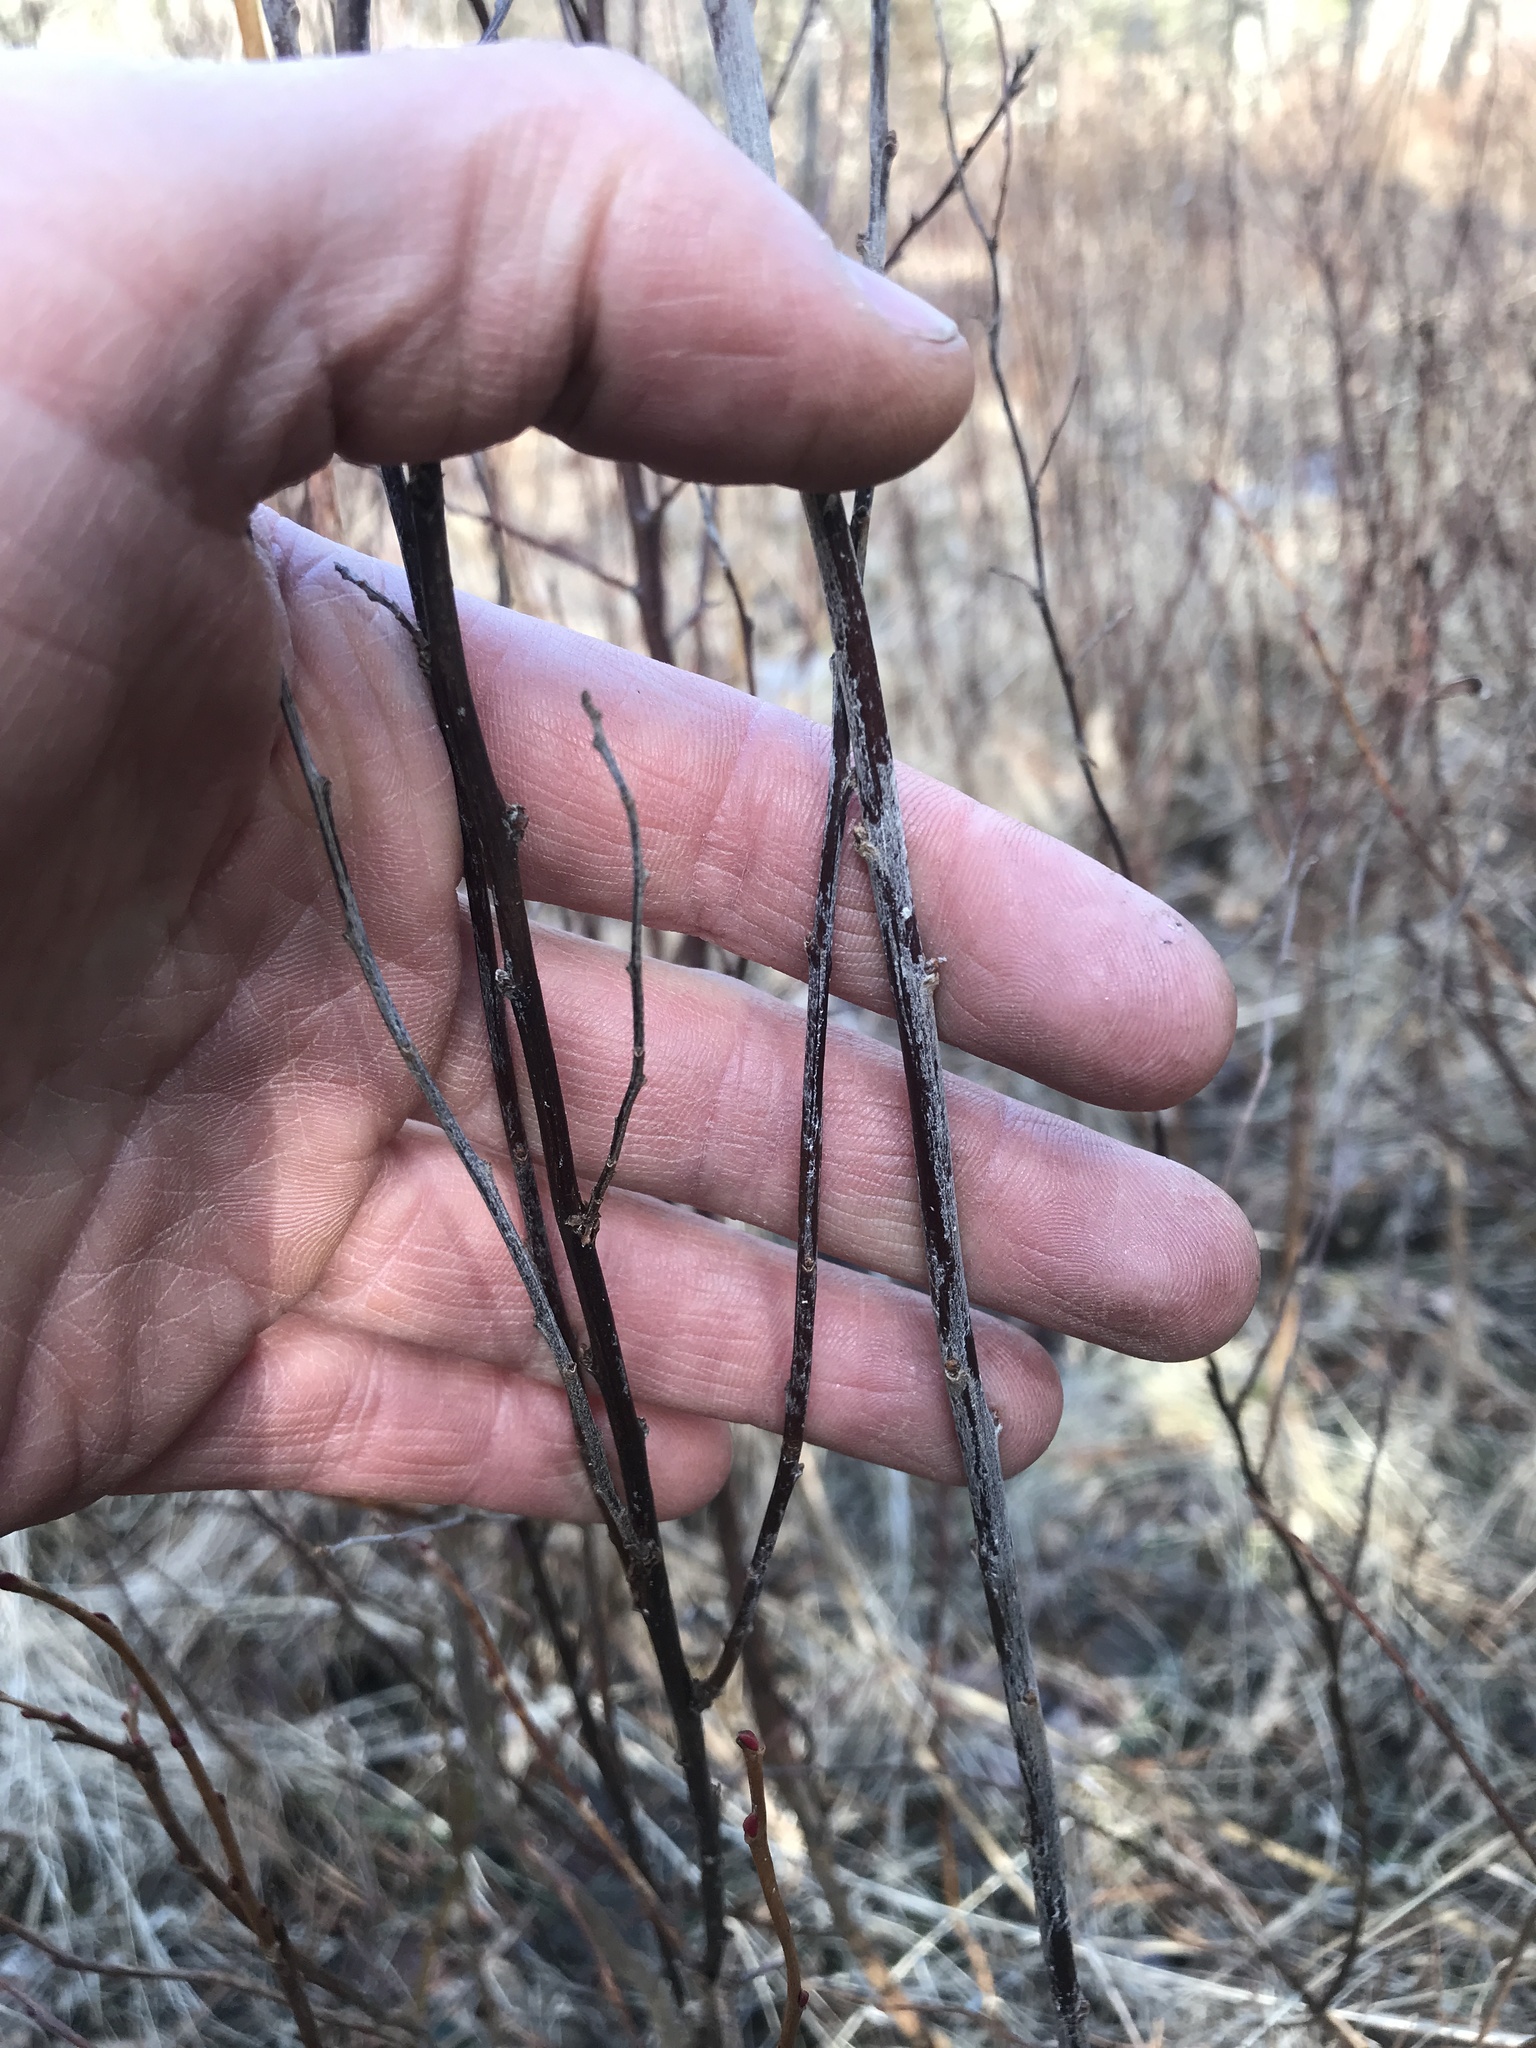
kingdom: Plantae
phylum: Tracheophyta
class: Magnoliopsida
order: Rosales
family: Rosaceae
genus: Spiraea
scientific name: Spiraea tomentosa
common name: Hardhack
